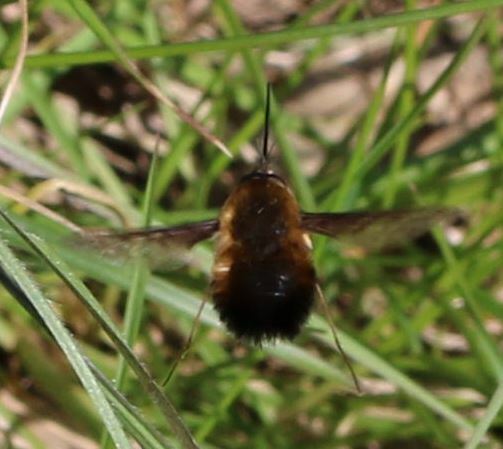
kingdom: Animalia
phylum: Arthropoda
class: Insecta
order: Diptera
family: Bombyliidae
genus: Bombylius
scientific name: Bombylius discolor
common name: Dotted bee-fly
